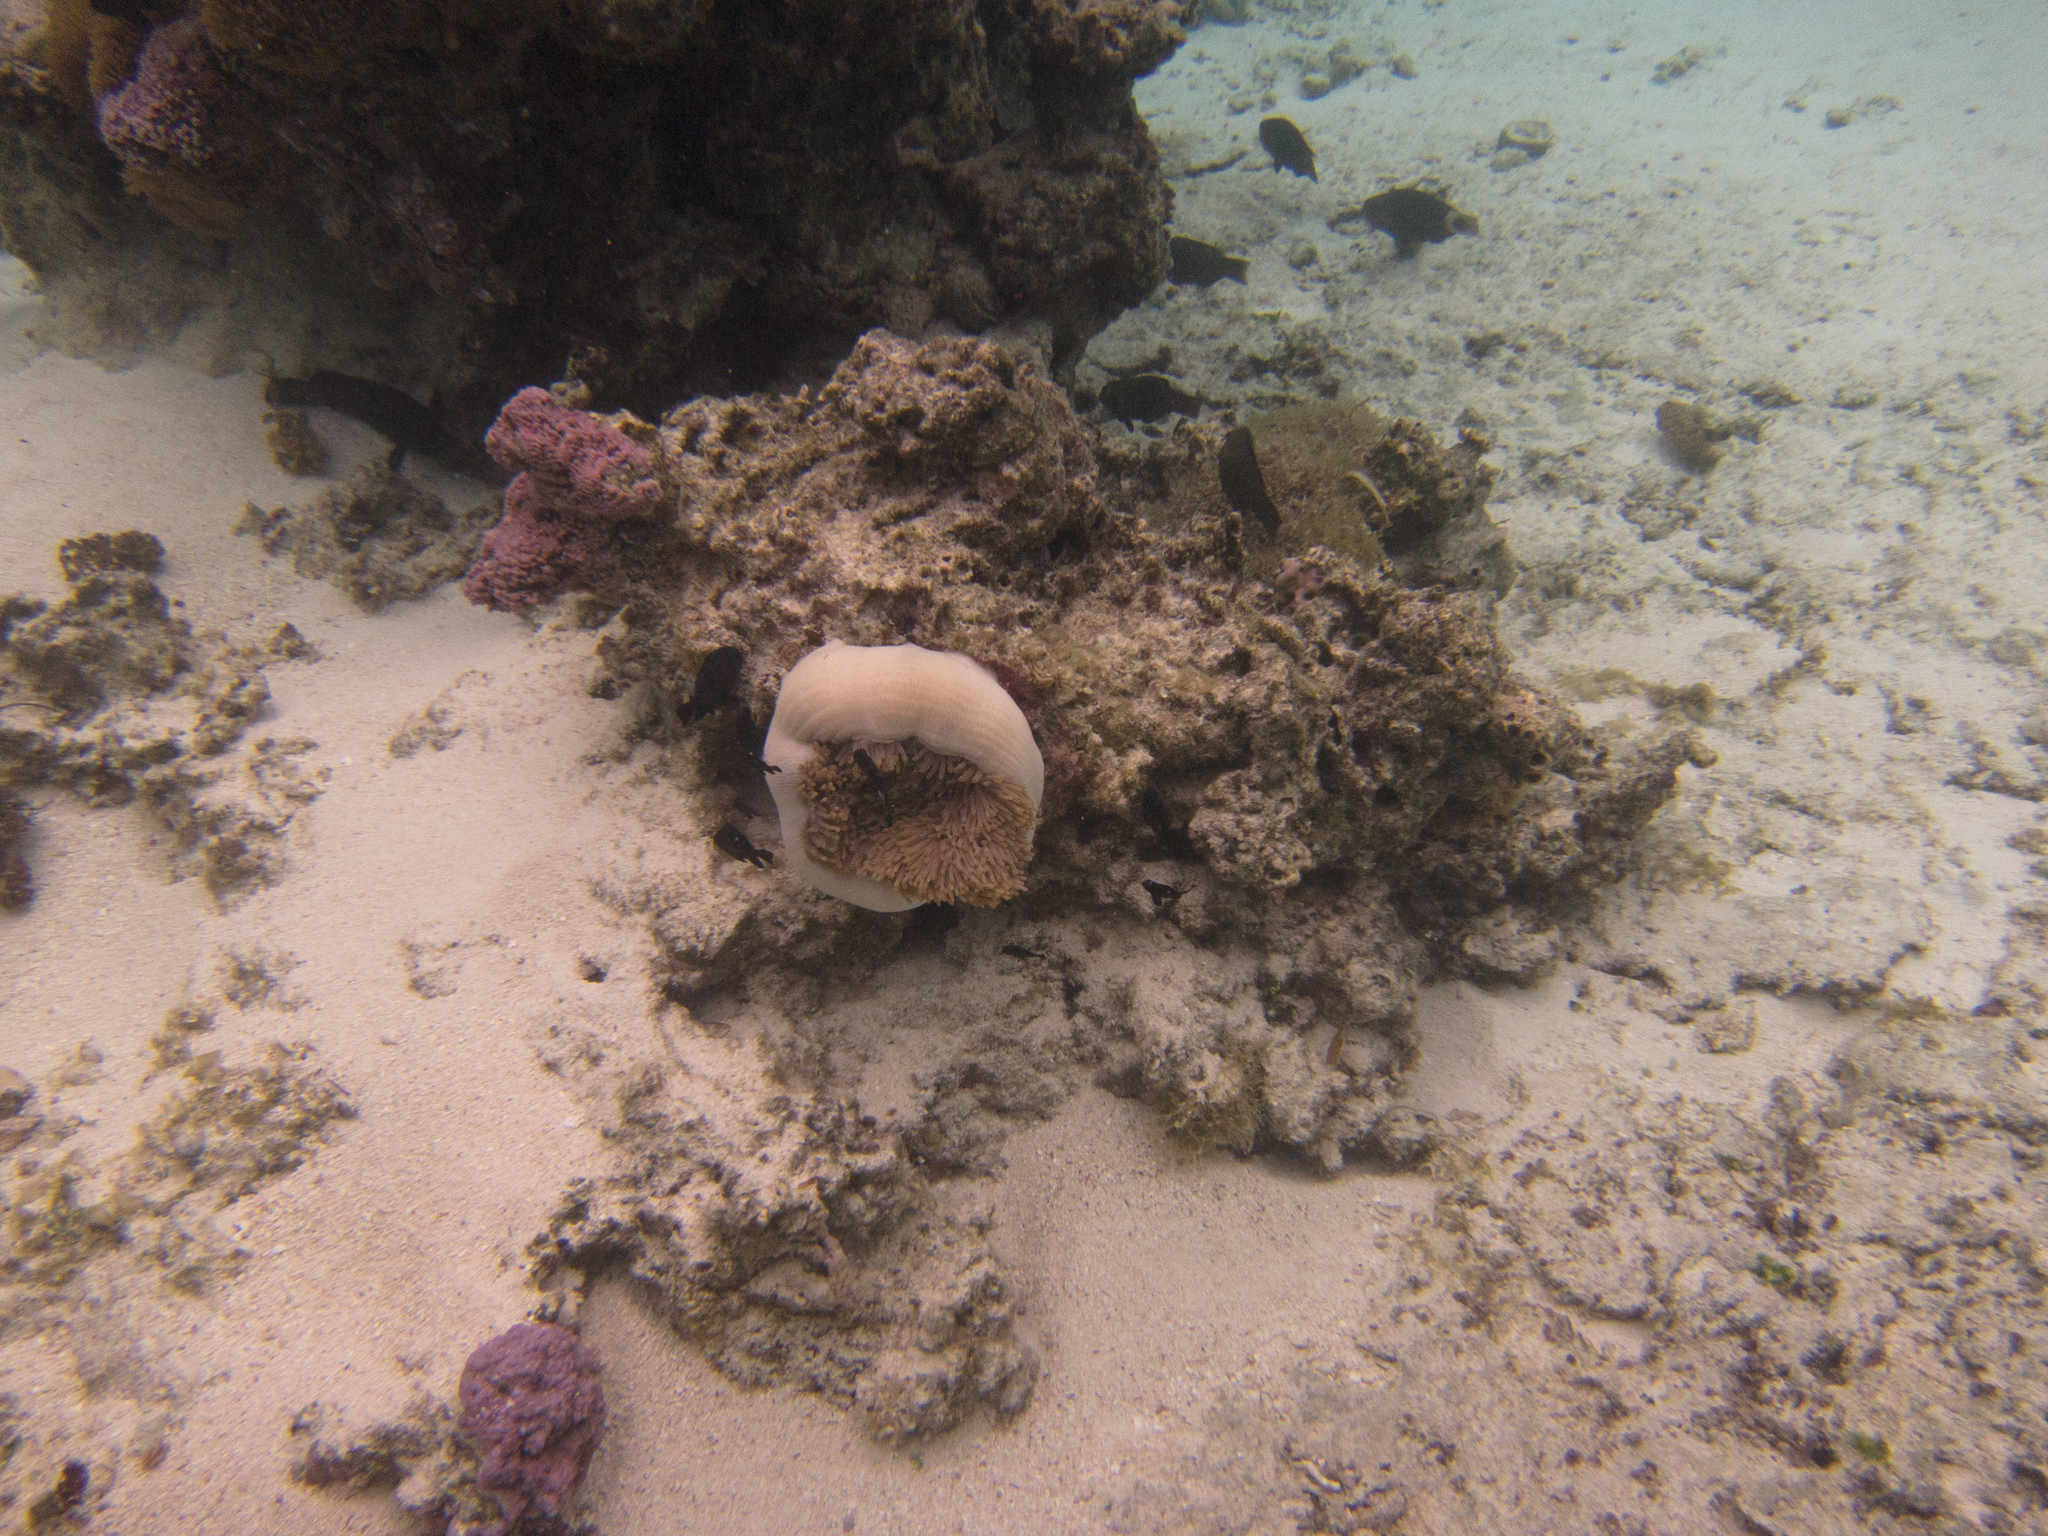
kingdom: Animalia
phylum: Cnidaria
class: Anthozoa
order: Actiniaria
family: Stichodactylidae
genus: Radianthus
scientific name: Radianthus magnifica
